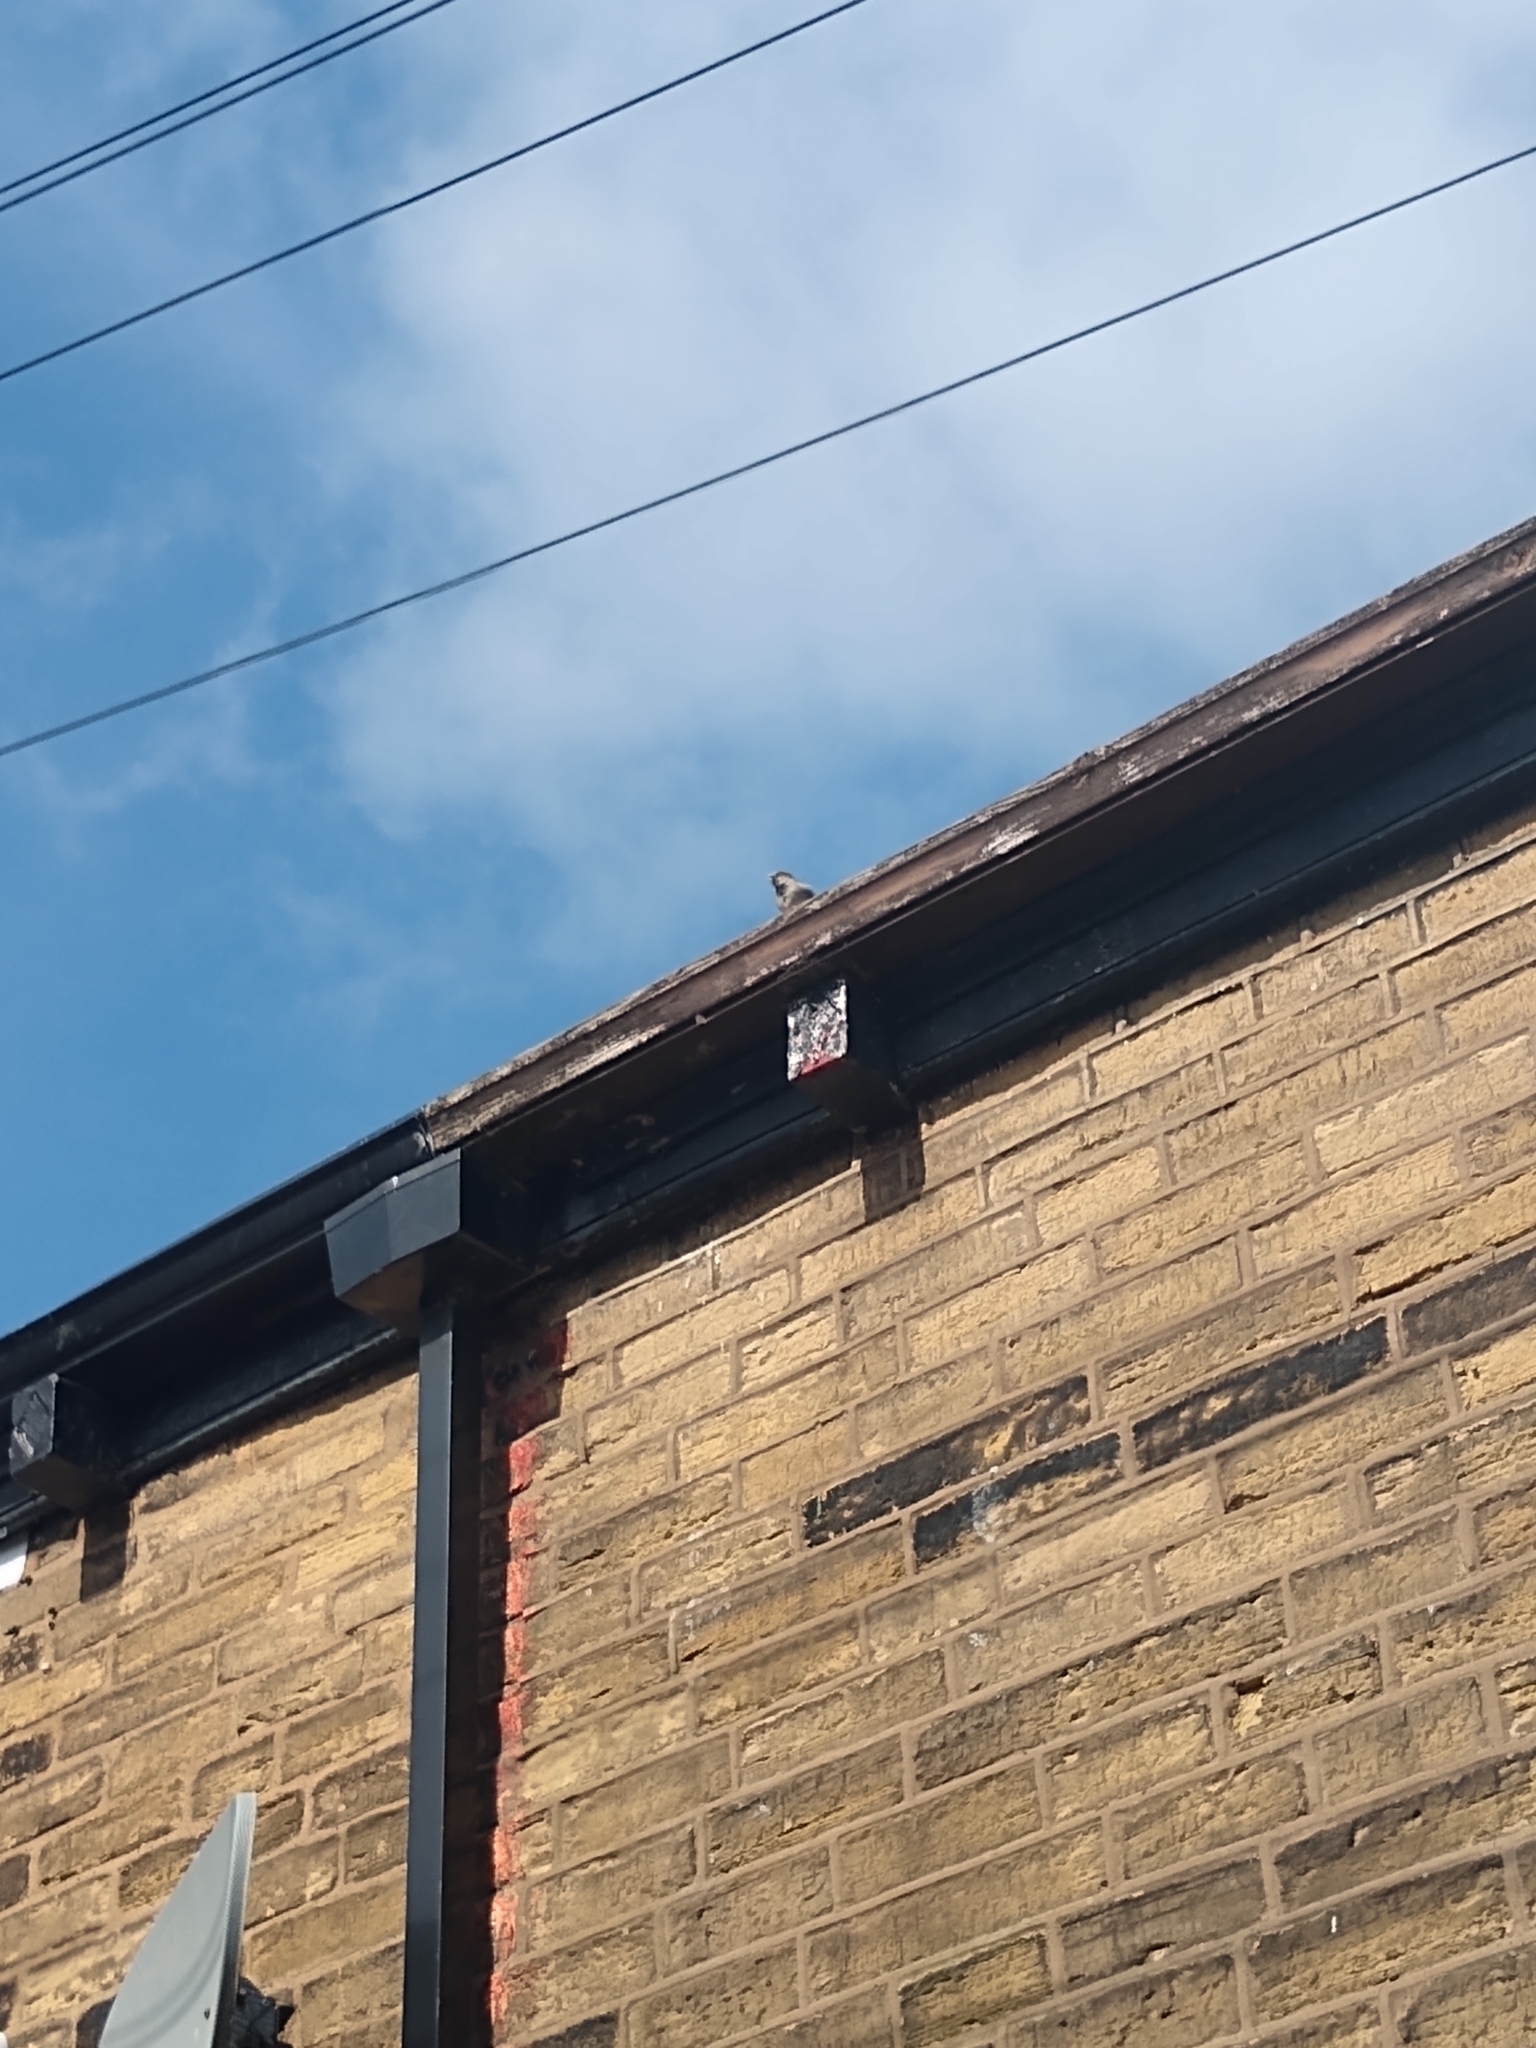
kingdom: Animalia
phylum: Chordata
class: Aves
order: Passeriformes
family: Passeridae
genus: Passer
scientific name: Passer domesticus
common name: House sparrow
